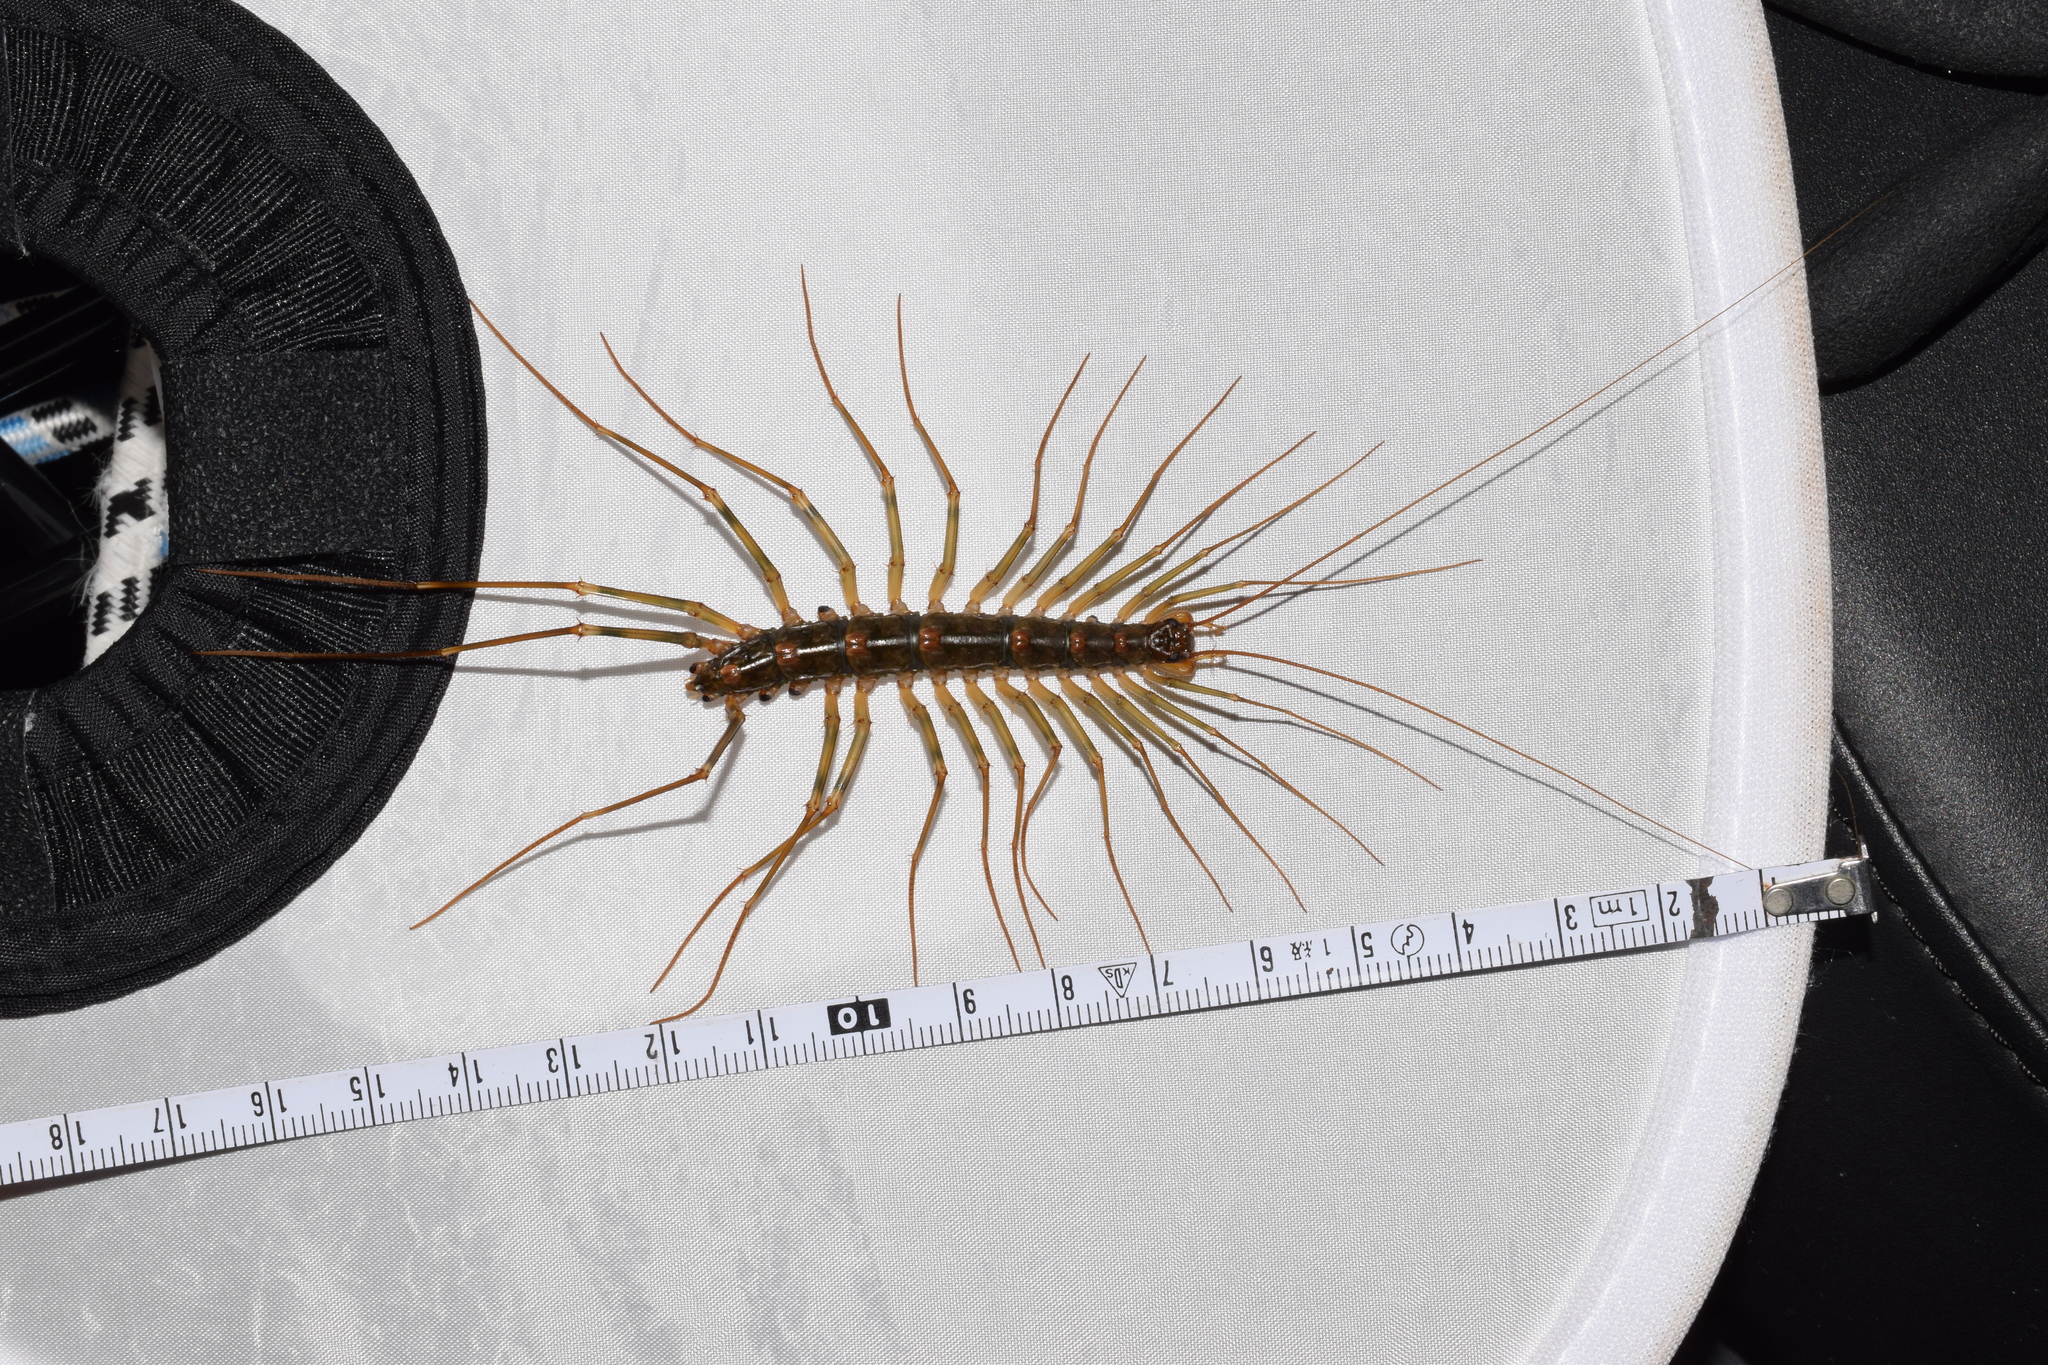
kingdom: Animalia
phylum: Arthropoda
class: Chilopoda
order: Scutigeromorpha
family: Scutigeridae
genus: Thereuopoda
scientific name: Thereuopoda clunifera
